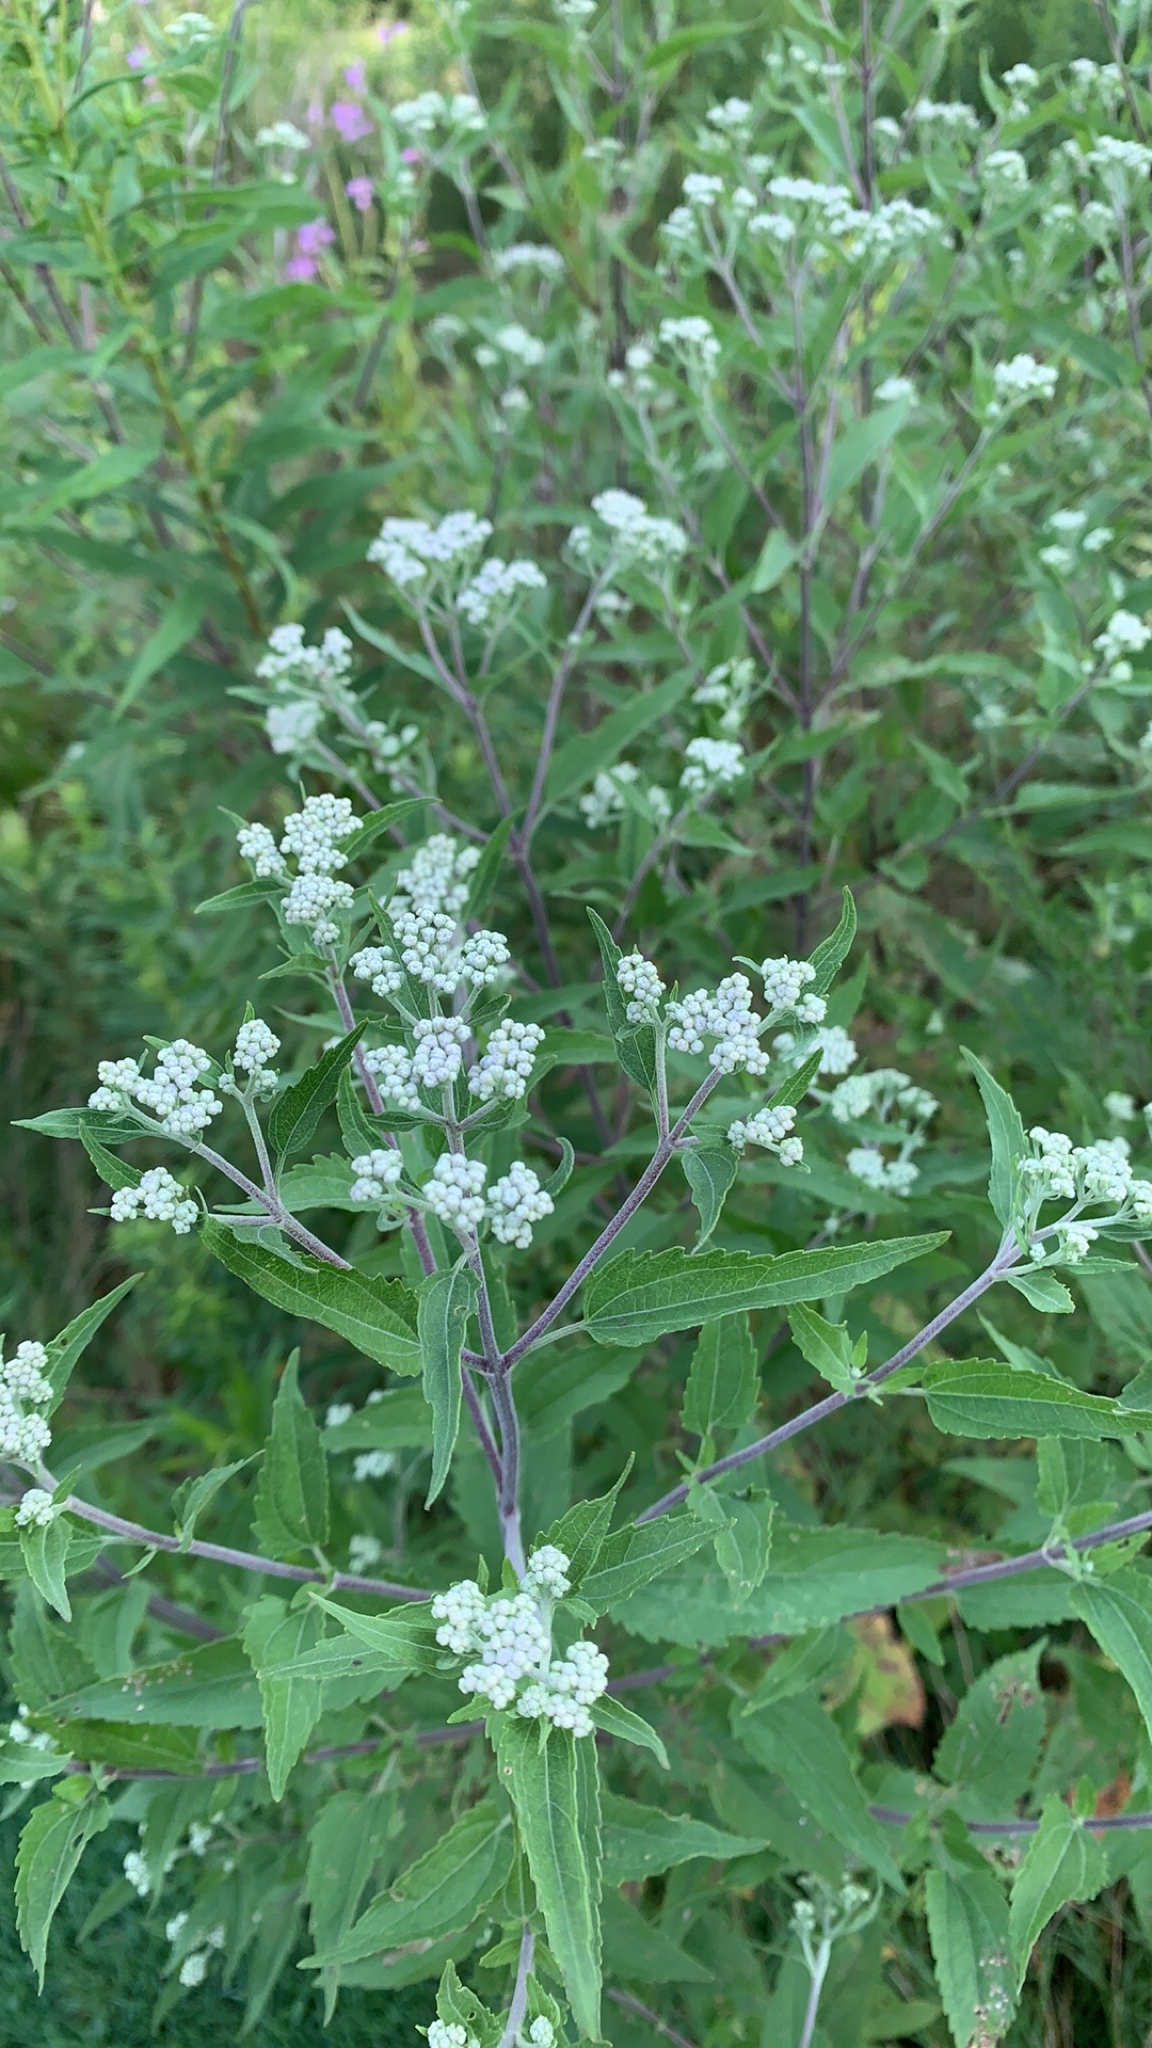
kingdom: Plantae
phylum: Tracheophyta
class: Magnoliopsida
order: Asterales
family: Asteraceae
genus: Eupatorium
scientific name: Eupatorium serotinum
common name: Late boneset
